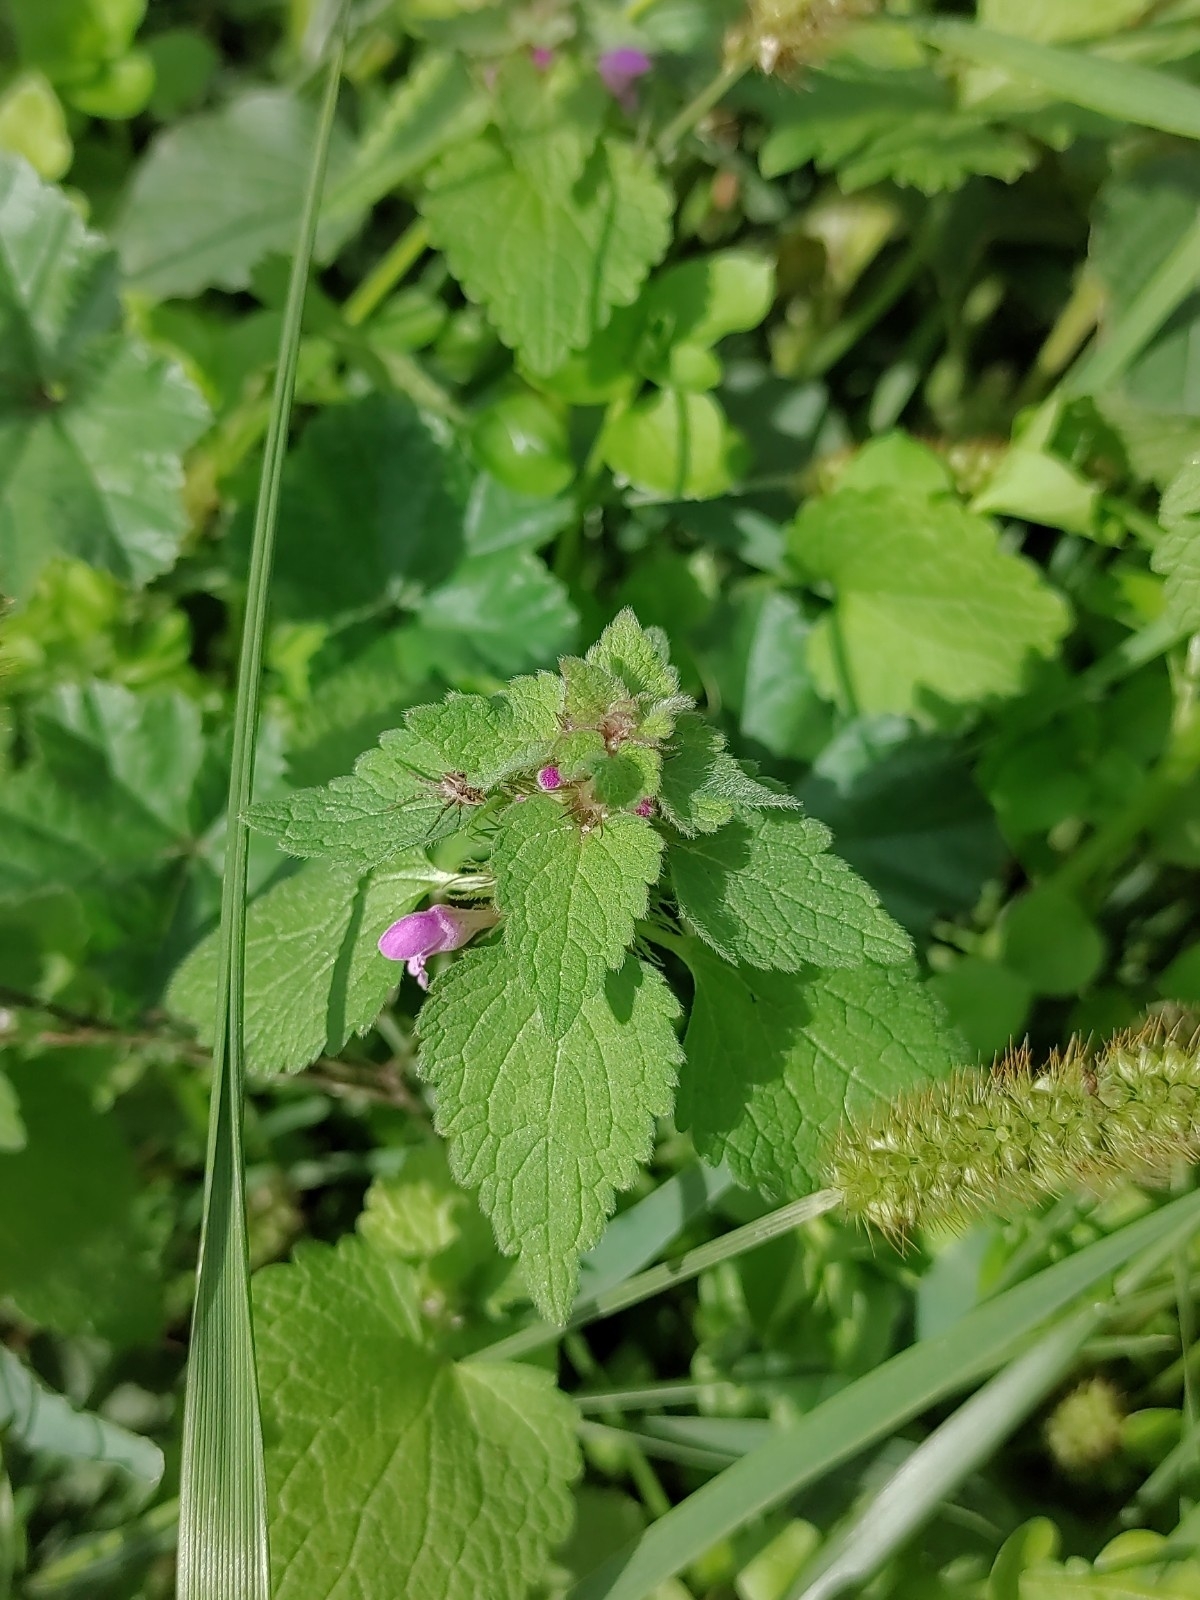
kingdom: Plantae
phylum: Tracheophyta
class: Magnoliopsida
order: Lamiales
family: Lamiaceae
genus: Lamium
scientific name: Lamium purpureum
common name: Red dead-nettle
